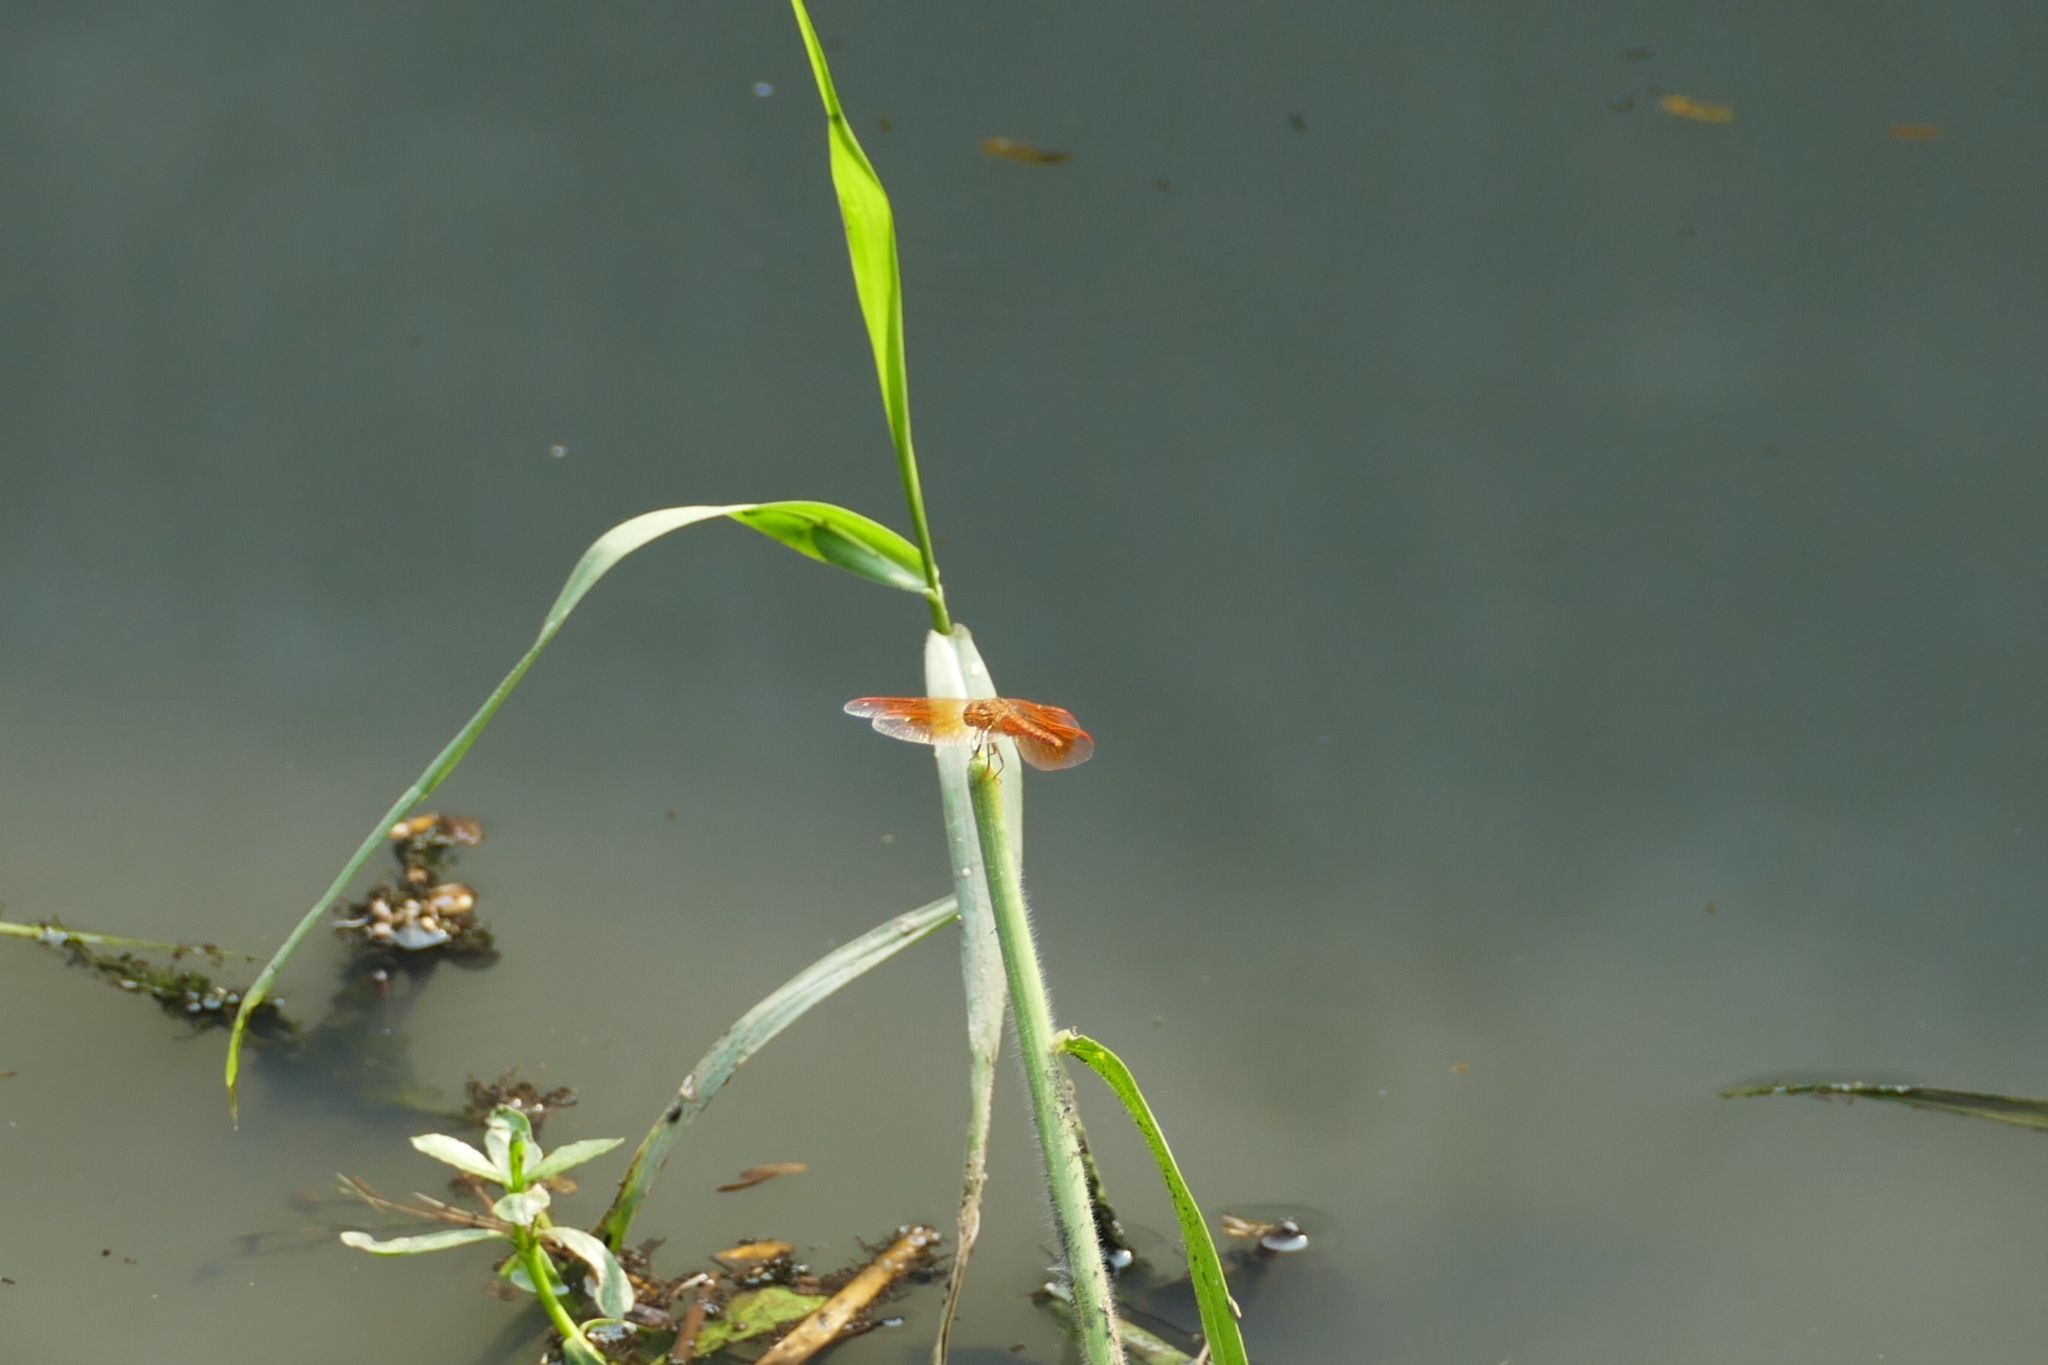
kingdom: Animalia
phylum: Arthropoda
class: Insecta
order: Odonata
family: Libellulidae
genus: Brachythemis
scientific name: Brachythemis contaminata
